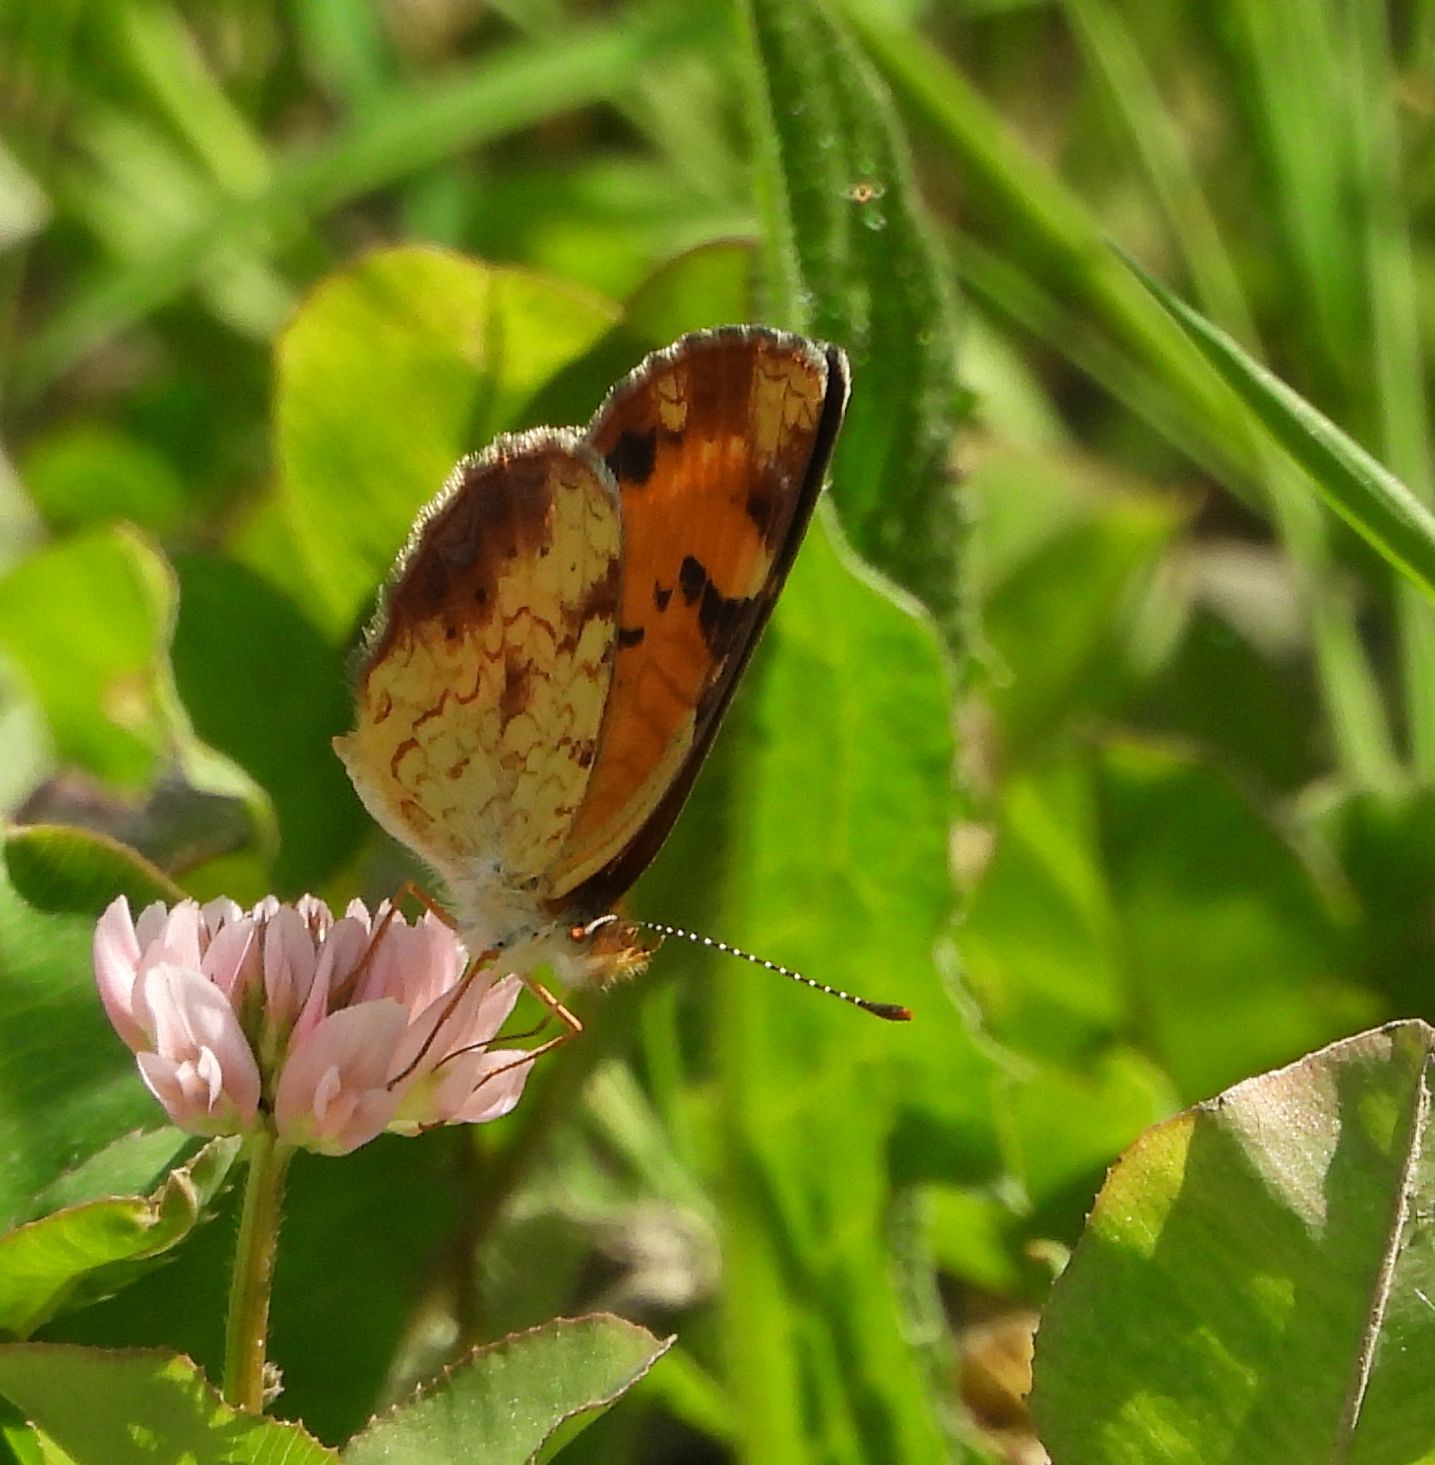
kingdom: Animalia
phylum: Arthropoda
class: Insecta
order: Lepidoptera
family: Nymphalidae
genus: Phyciodes
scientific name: Phyciodes tharos
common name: Pearl crescent
